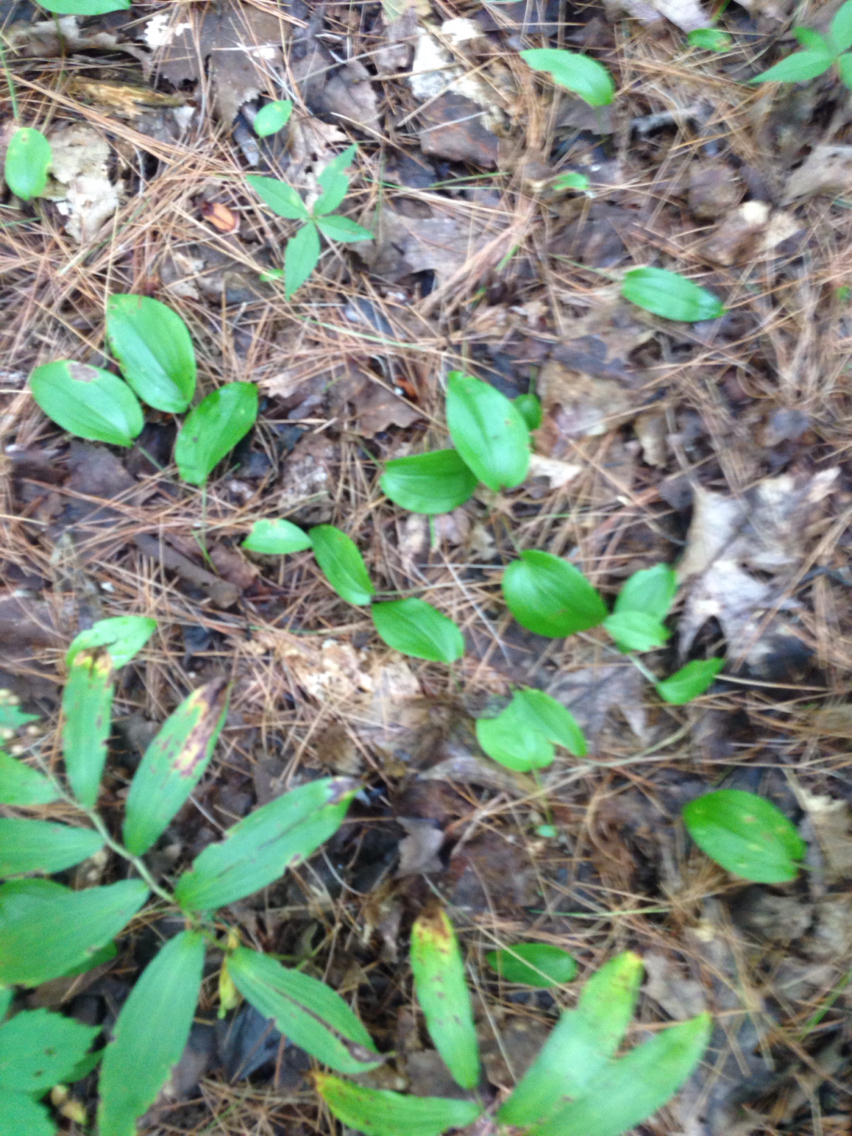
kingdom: Plantae
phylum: Tracheophyta
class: Liliopsida
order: Asparagales
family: Asparagaceae
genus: Maianthemum
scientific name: Maianthemum racemosum
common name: False spikenard
